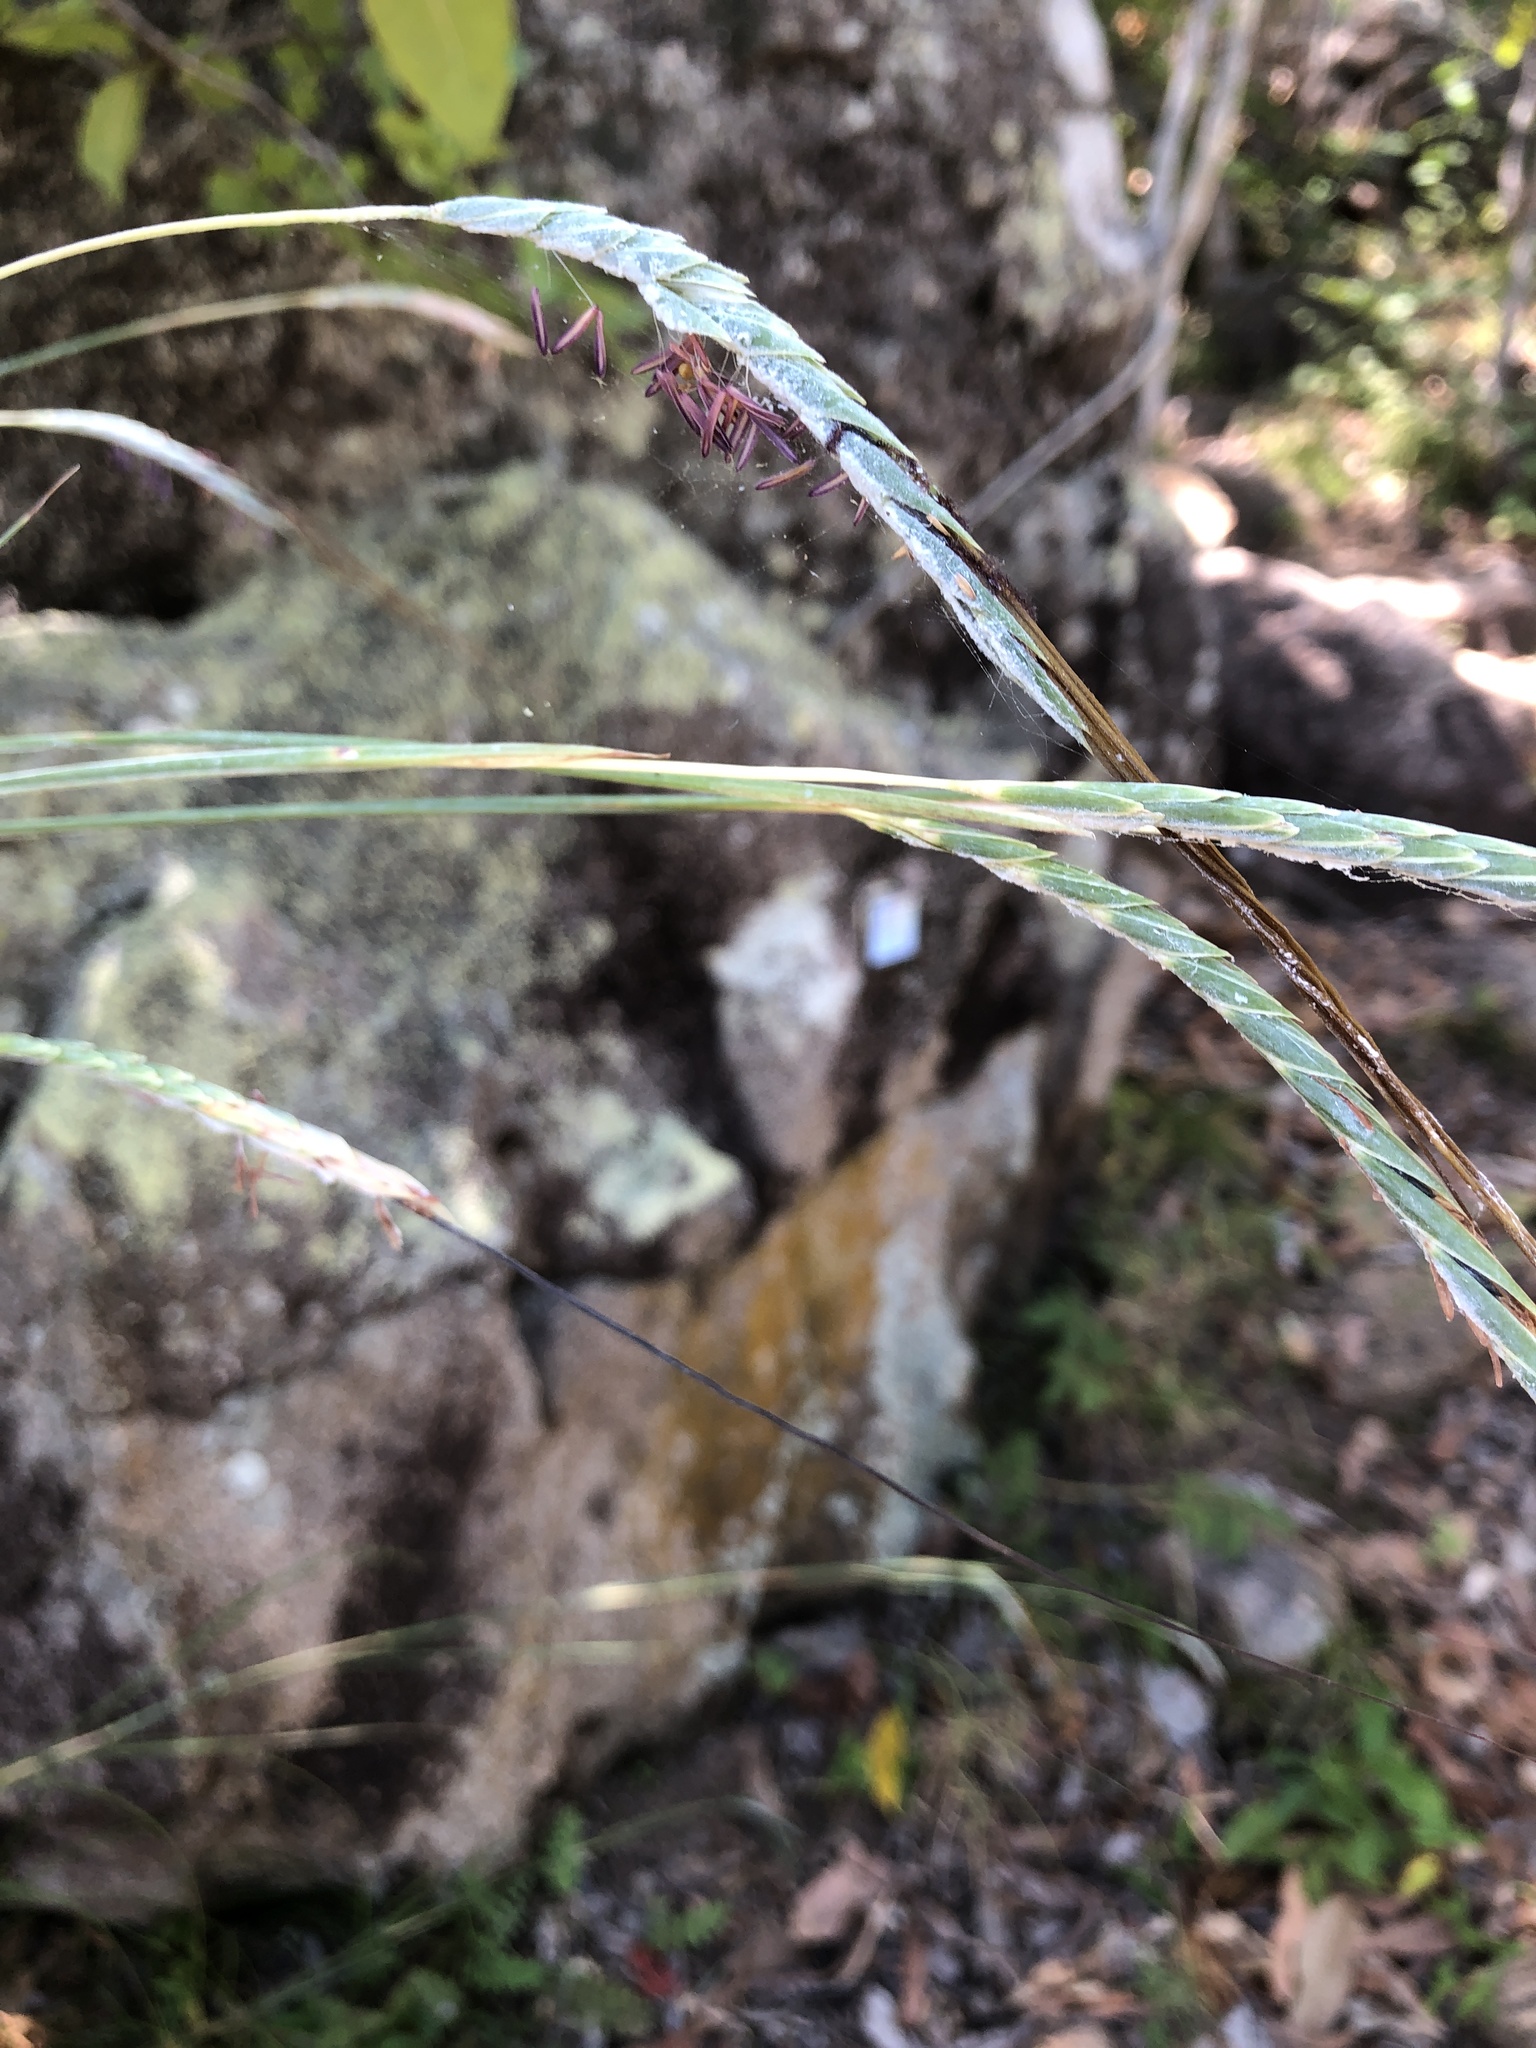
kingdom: Plantae
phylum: Tracheophyta
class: Liliopsida
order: Poales
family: Poaceae
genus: Heteropogon
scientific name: Heteropogon triticeus
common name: Sugar grass
